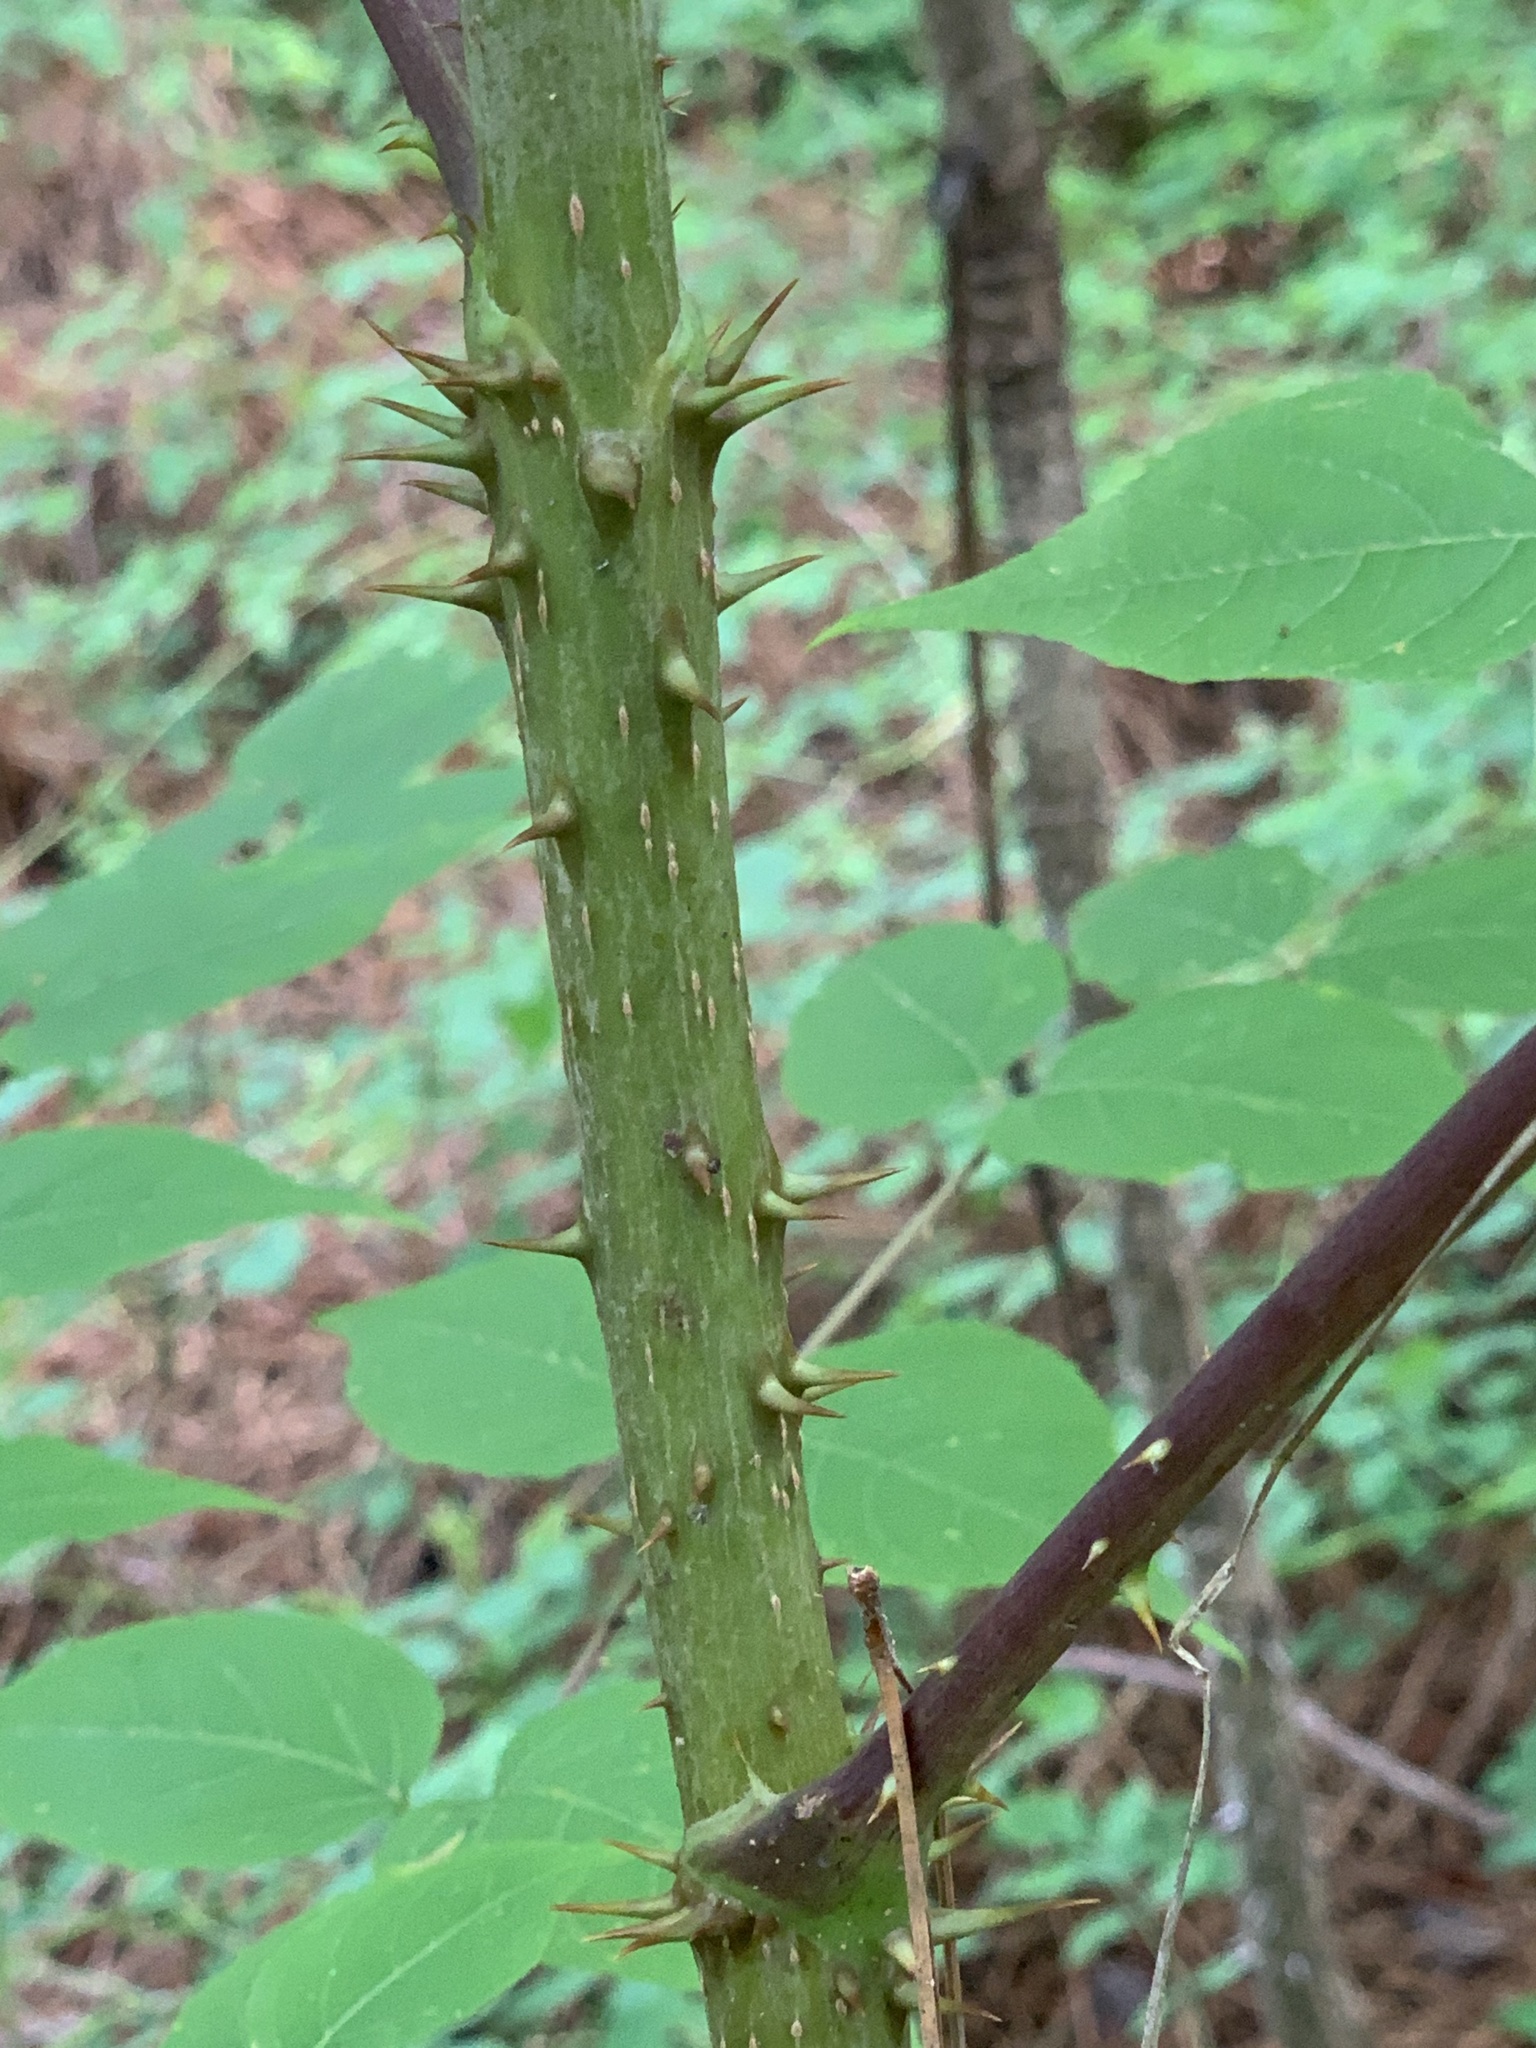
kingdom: Plantae
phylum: Tracheophyta
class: Magnoliopsida
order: Apiales
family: Araliaceae
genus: Aralia
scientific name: Aralia spinosa
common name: Hercules'-club
